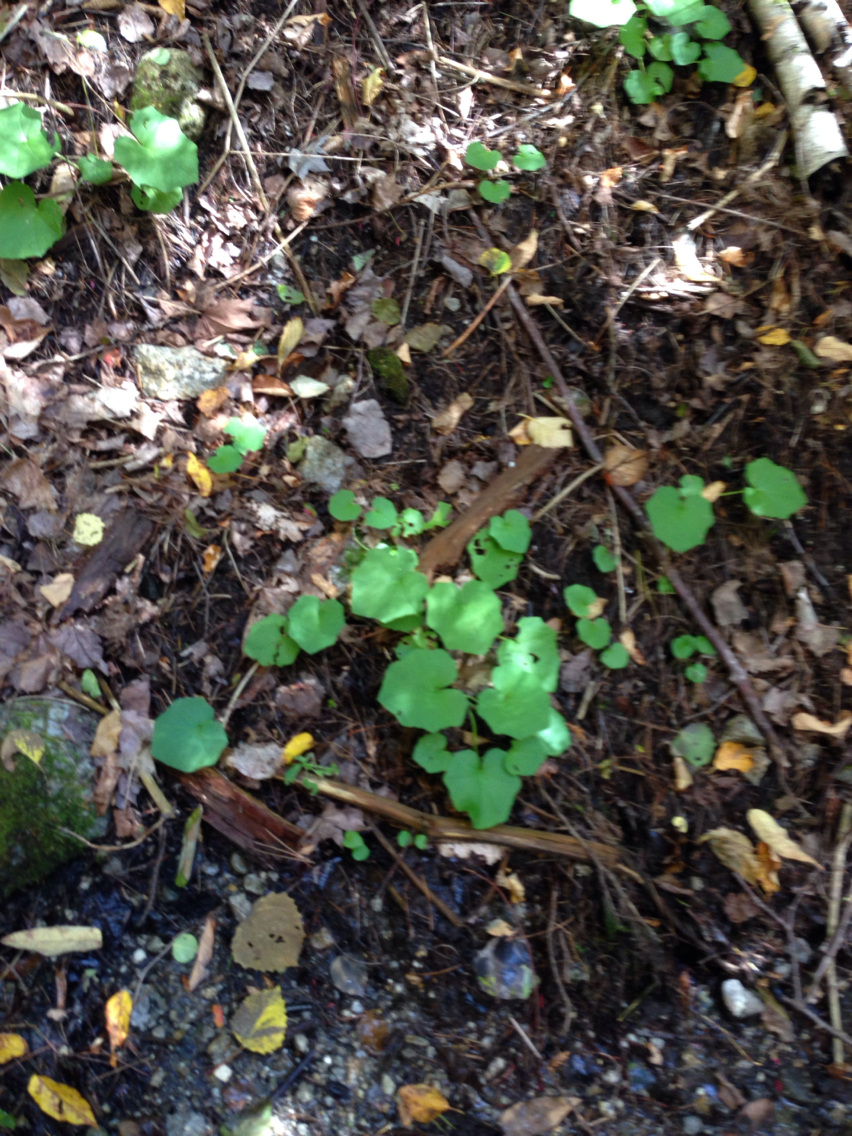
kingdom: Plantae
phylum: Tracheophyta
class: Magnoliopsida
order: Asterales
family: Asteraceae
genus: Tussilago
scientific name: Tussilago farfara
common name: Coltsfoot
